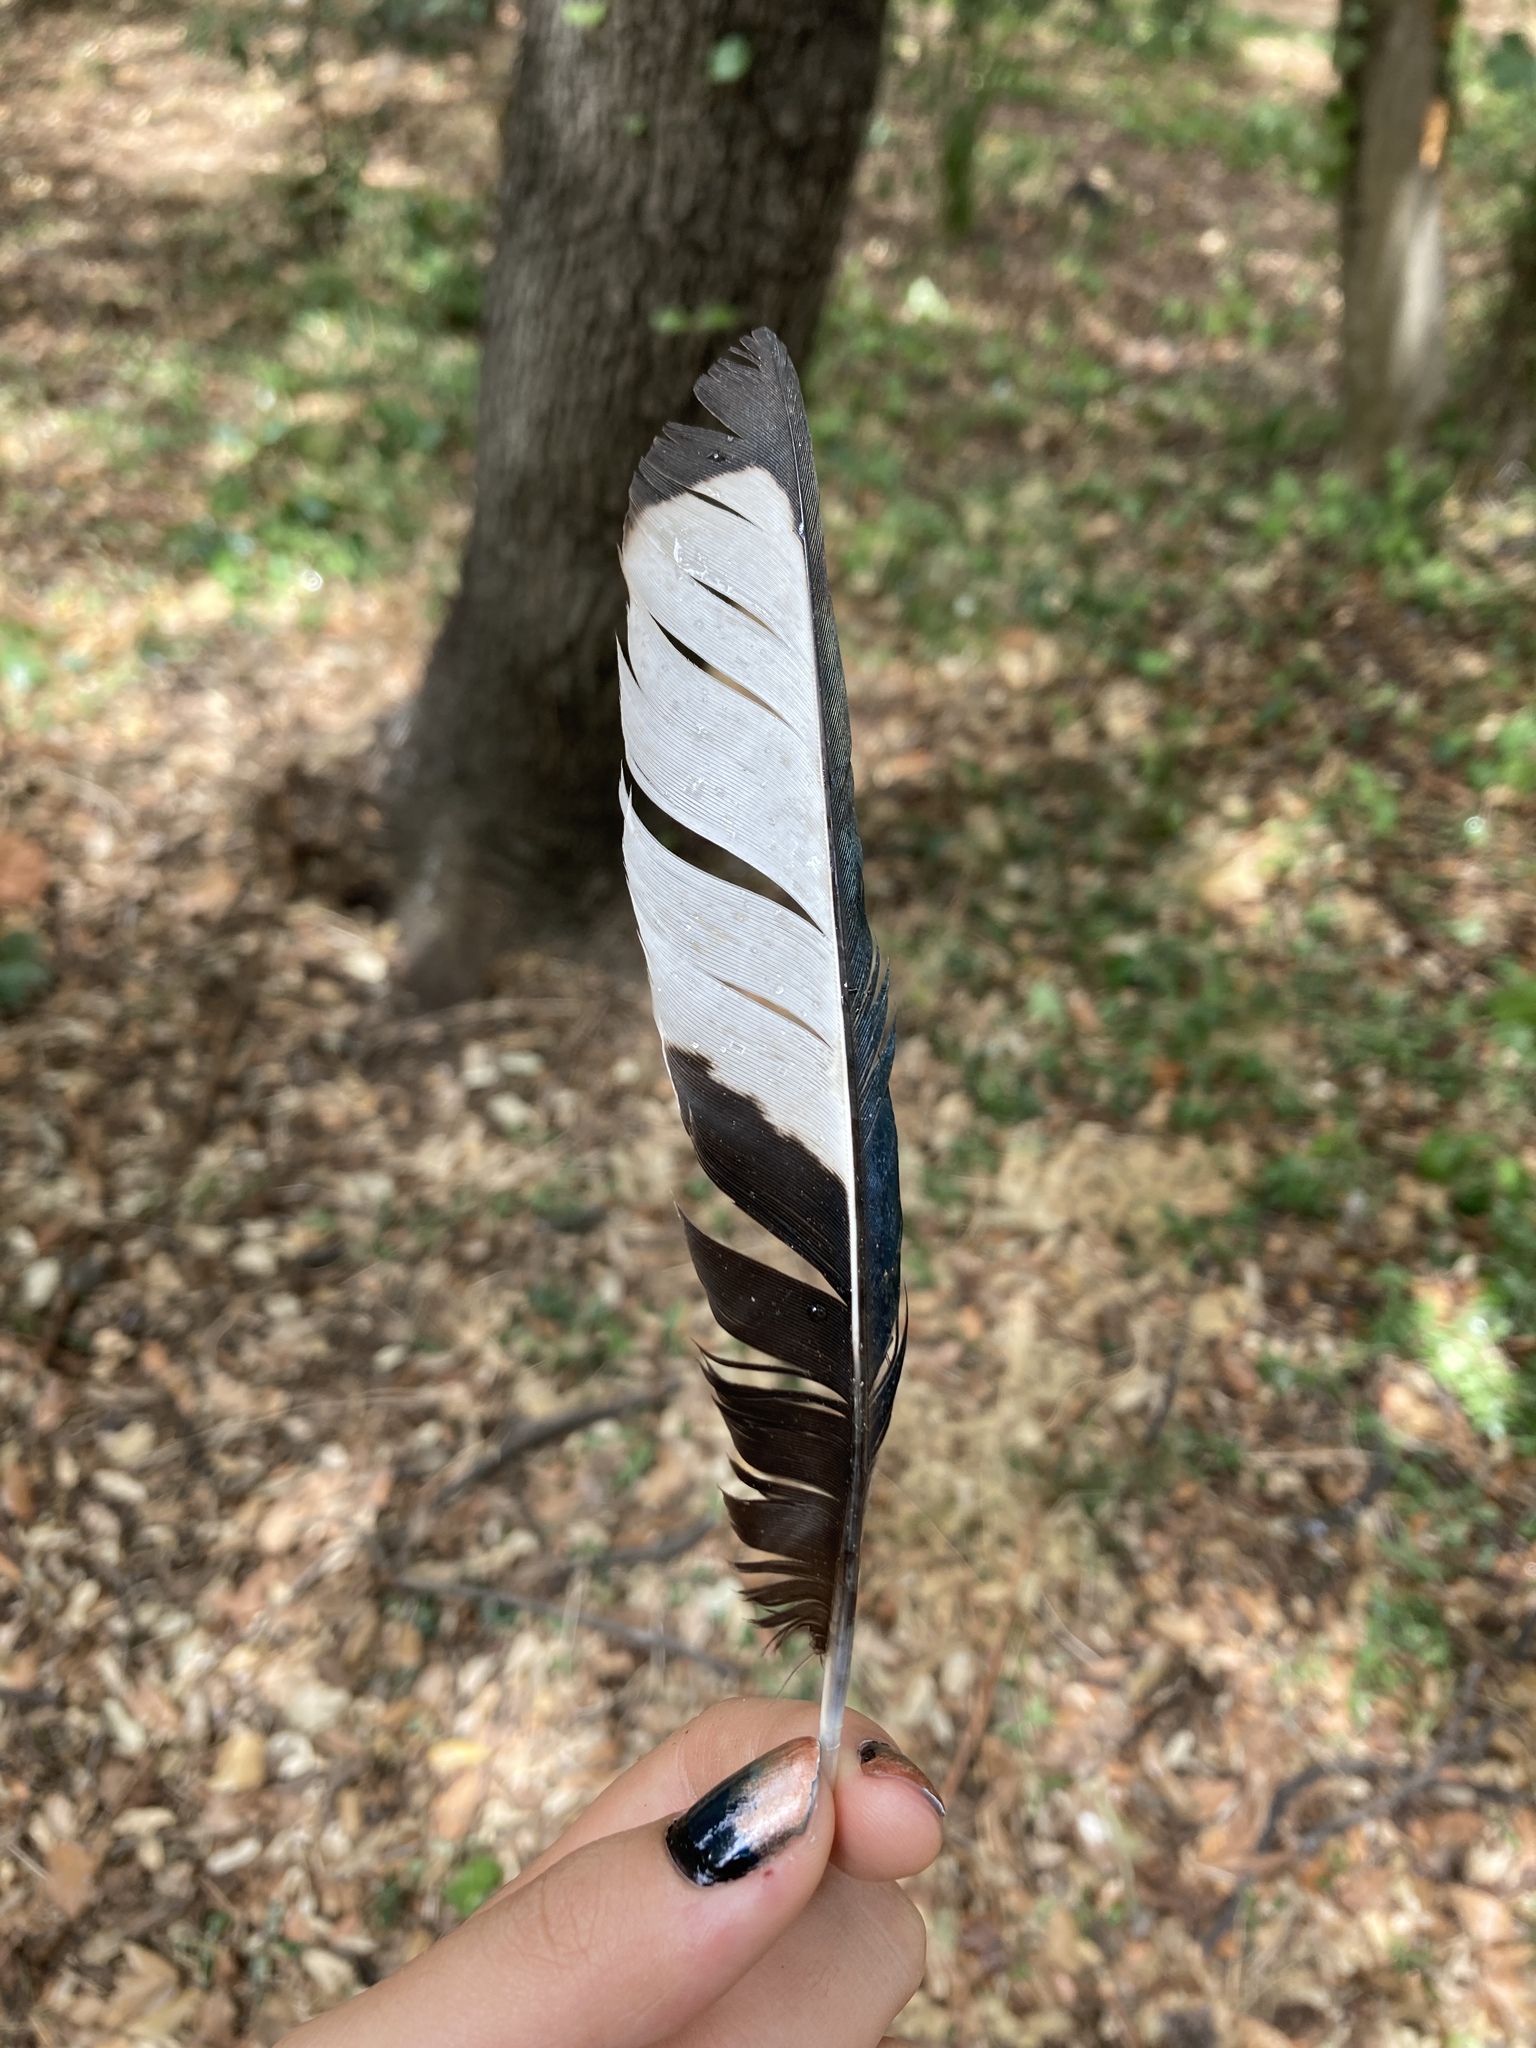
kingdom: Animalia
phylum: Chordata
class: Aves
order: Passeriformes
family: Corvidae
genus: Pica
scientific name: Pica pica
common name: Eurasian magpie
